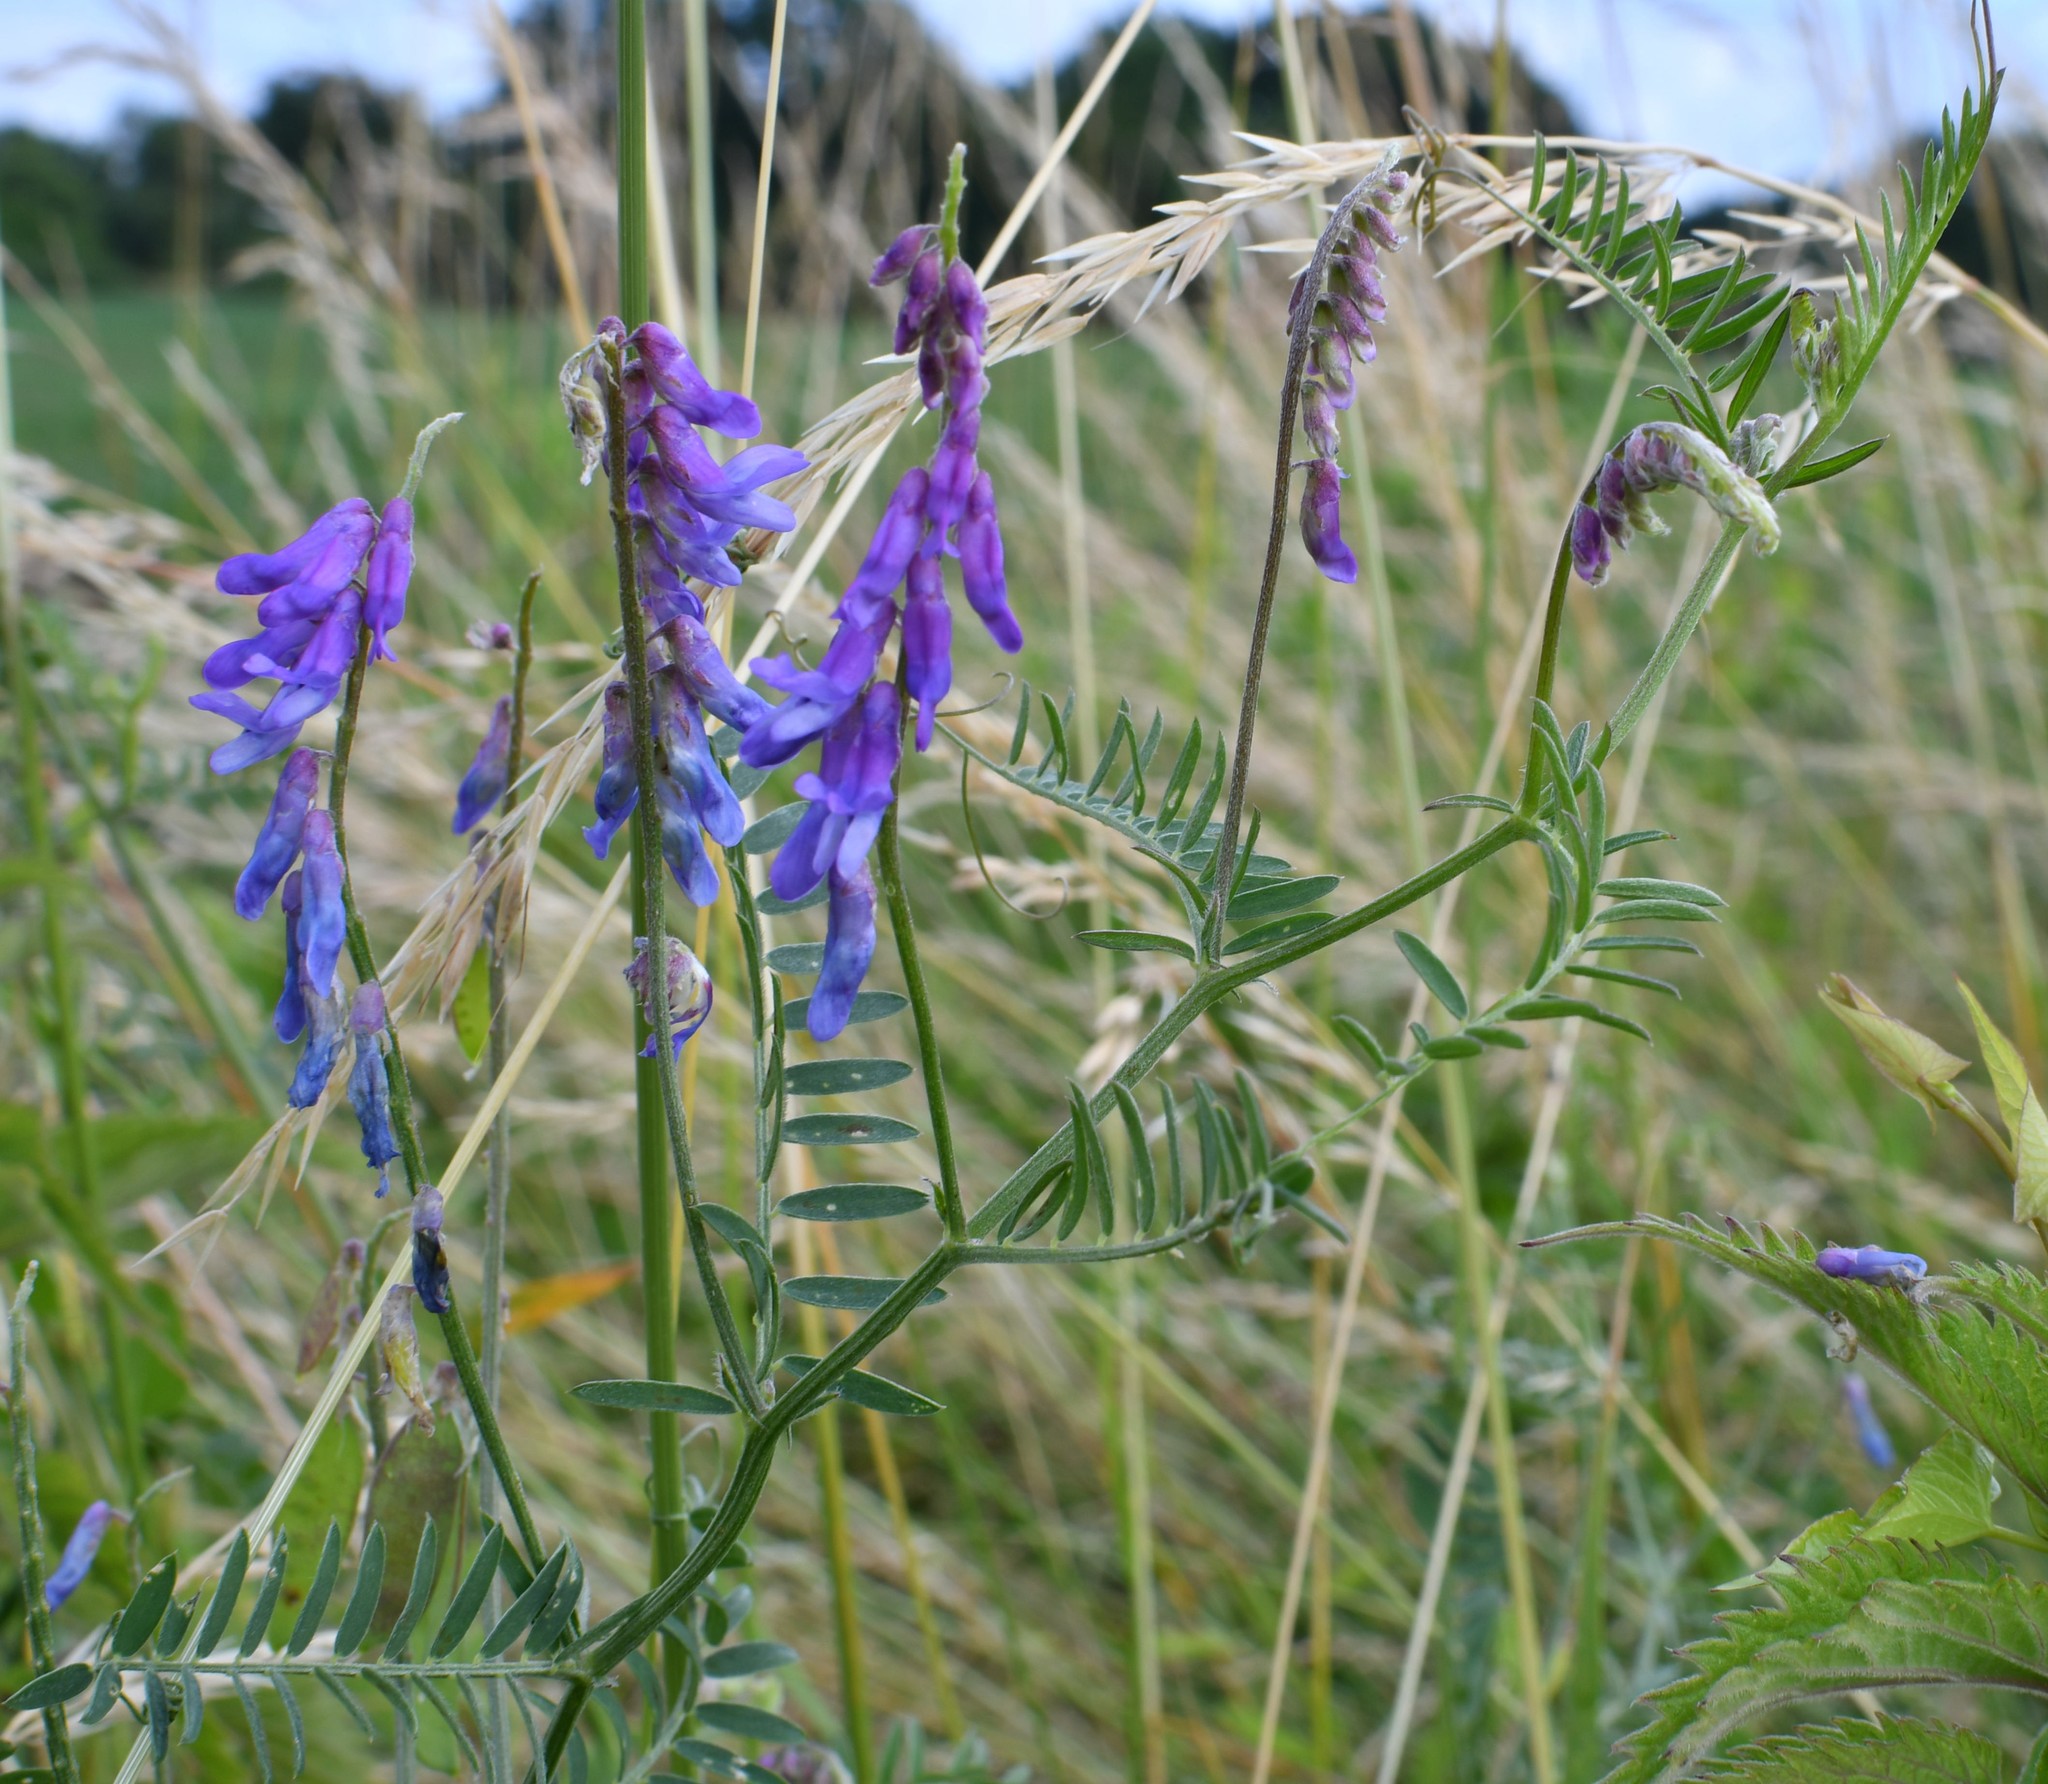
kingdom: Plantae
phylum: Tracheophyta
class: Magnoliopsida
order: Fabales
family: Fabaceae
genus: Vicia
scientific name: Vicia cracca
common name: Bird vetch
